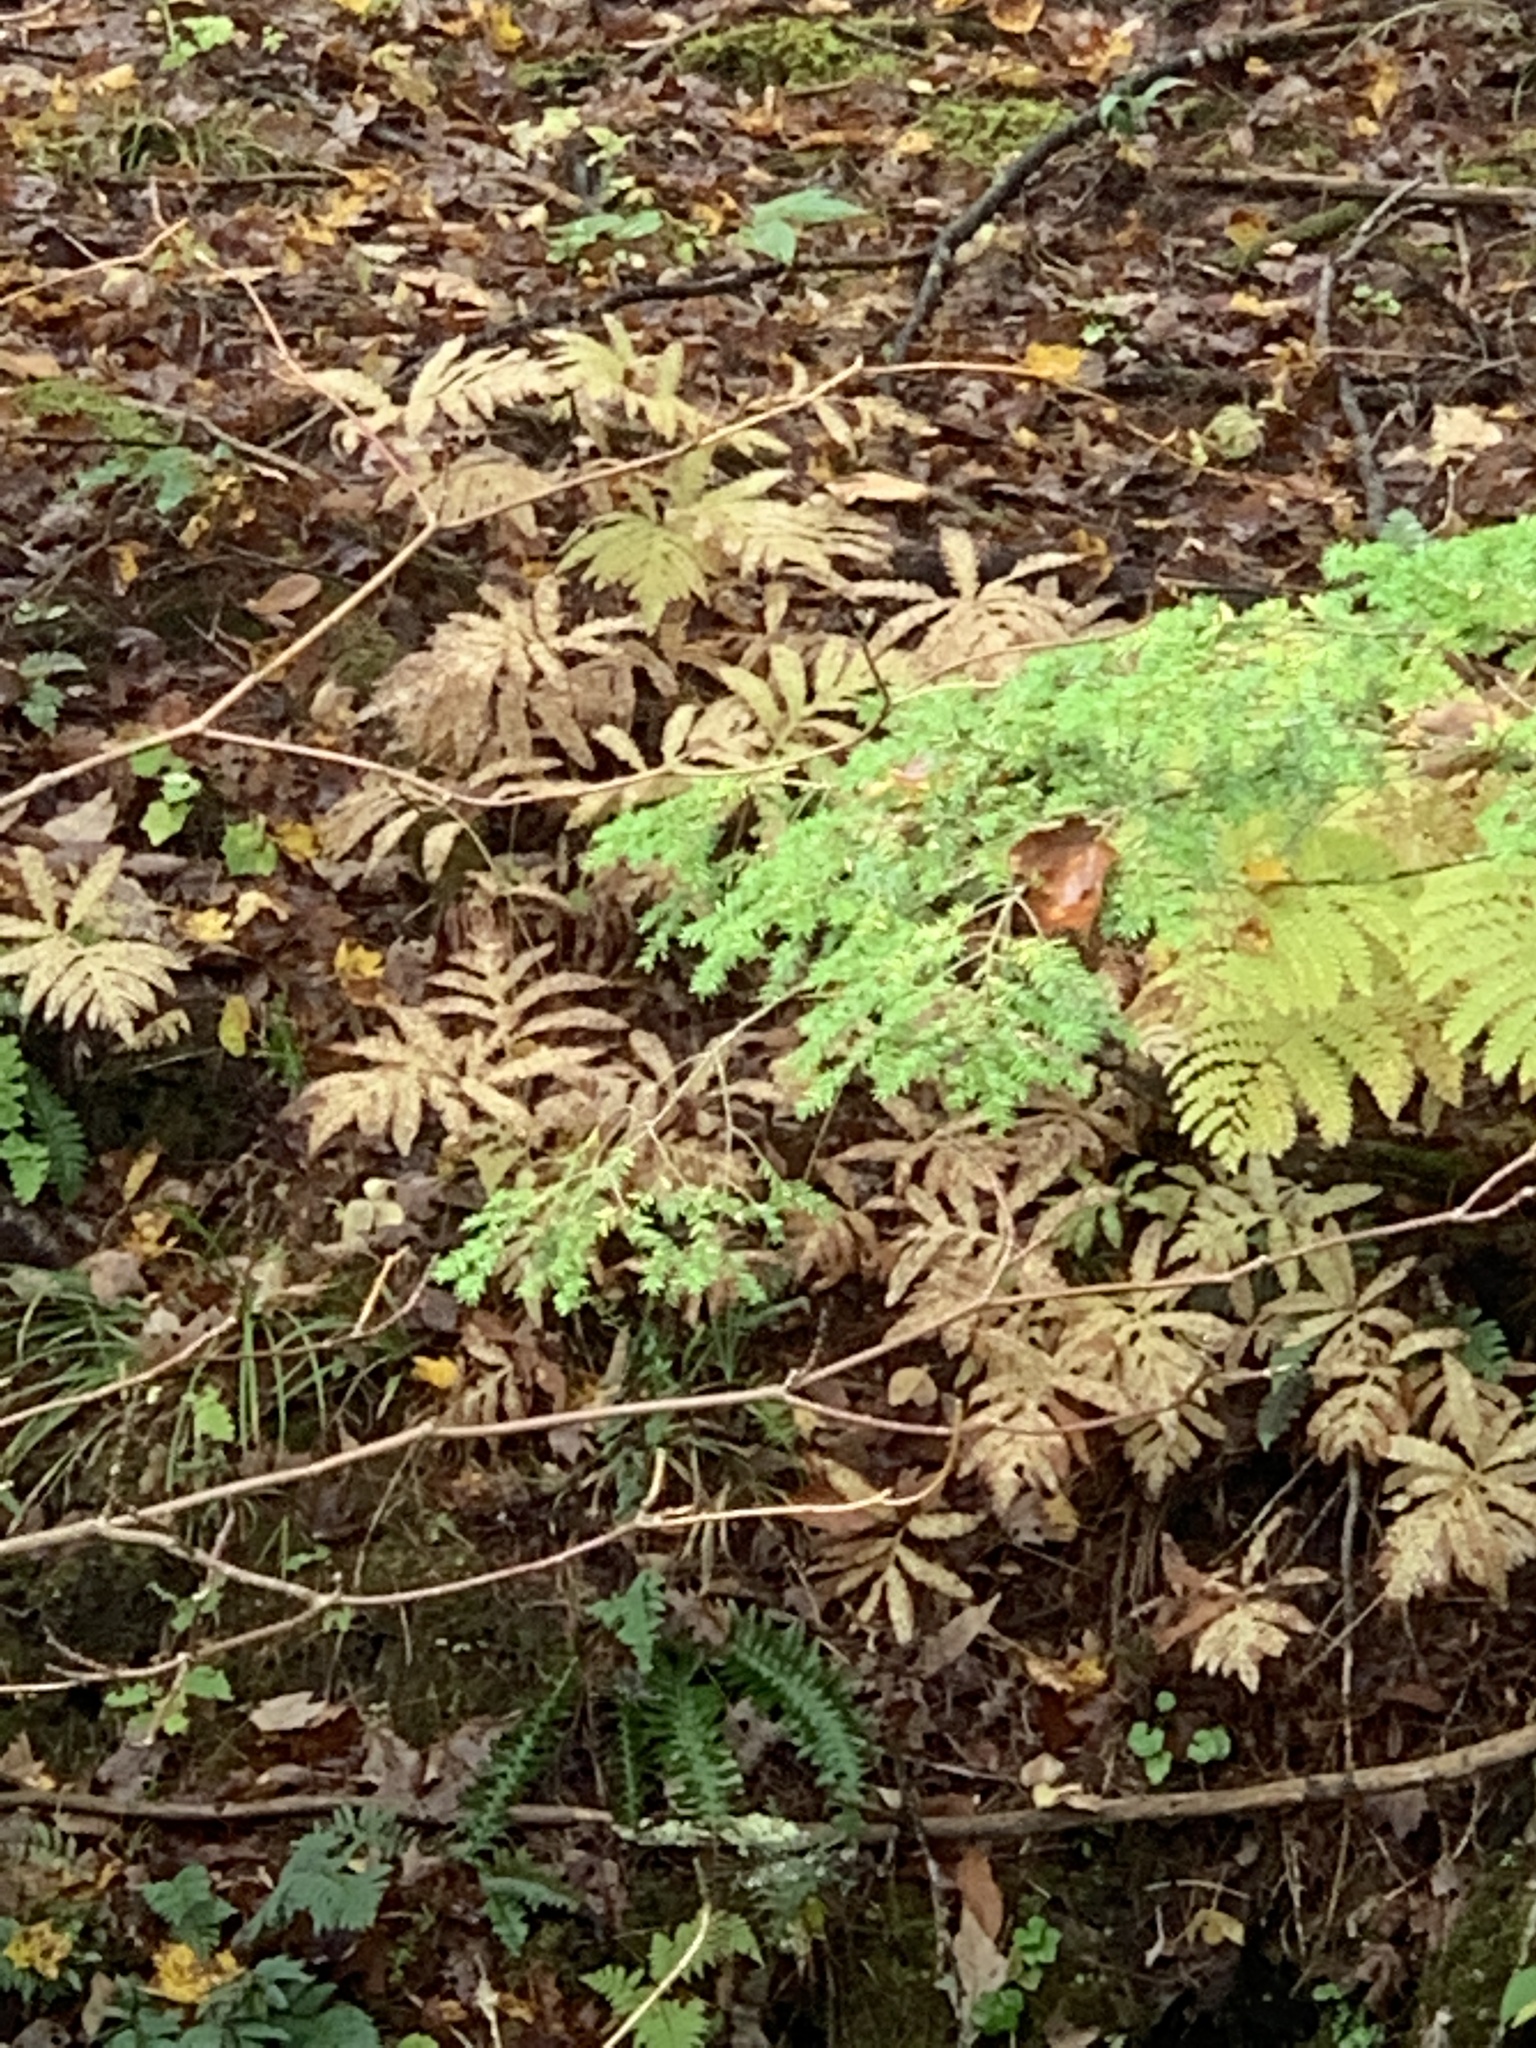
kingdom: Plantae
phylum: Tracheophyta
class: Polypodiopsida
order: Polypodiales
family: Onocleaceae
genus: Onoclea
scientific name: Onoclea sensibilis
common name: Sensitive fern
